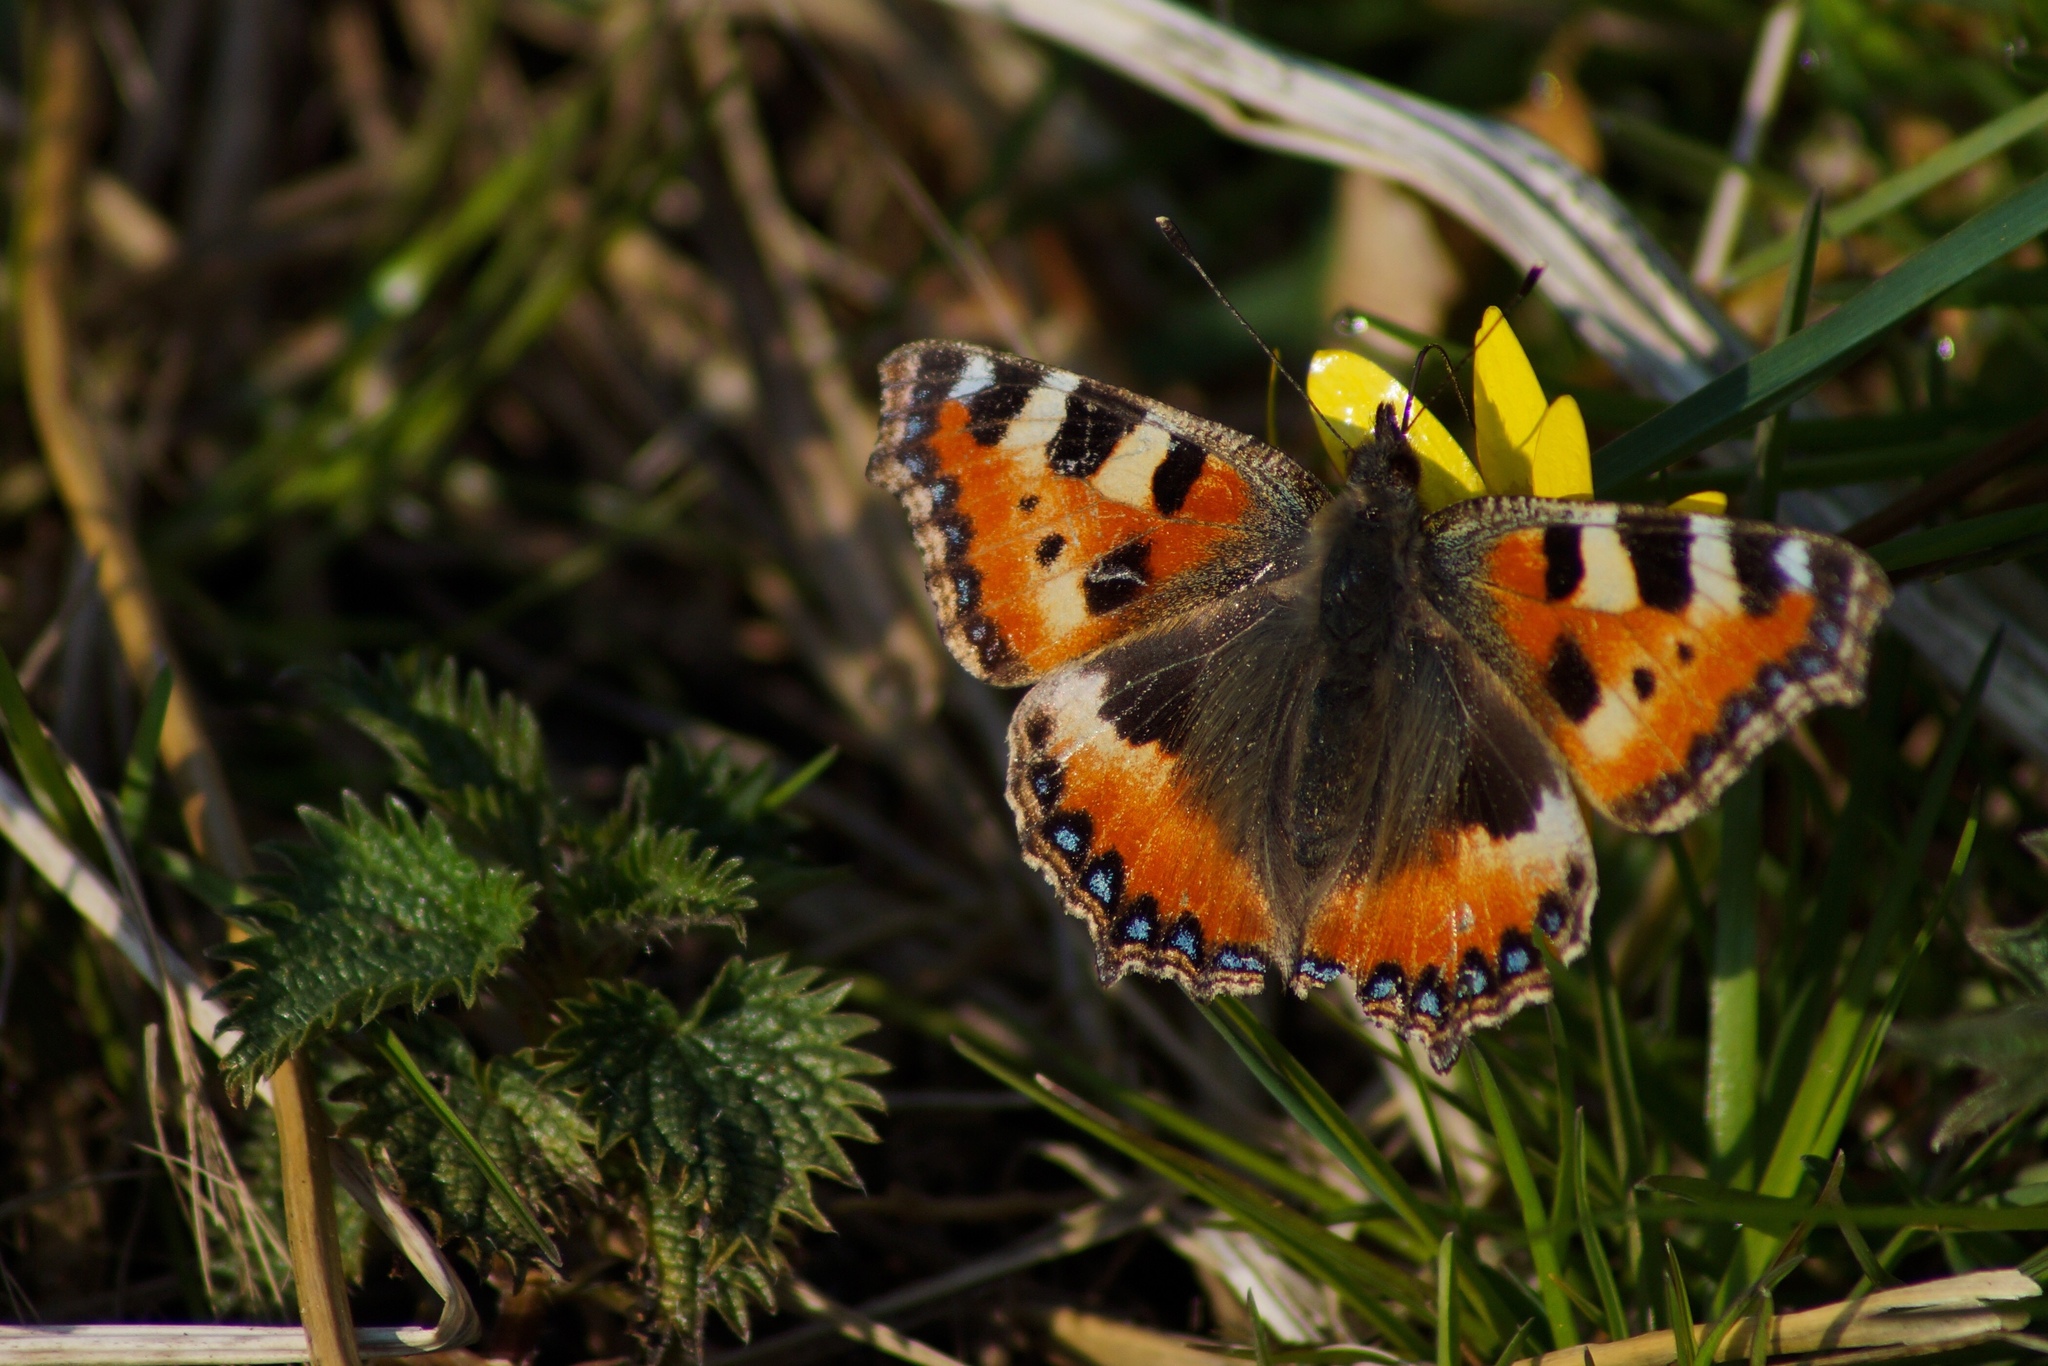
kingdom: Animalia
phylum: Arthropoda
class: Insecta
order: Lepidoptera
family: Nymphalidae
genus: Aglais
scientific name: Aglais urticae
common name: Small tortoiseshell
